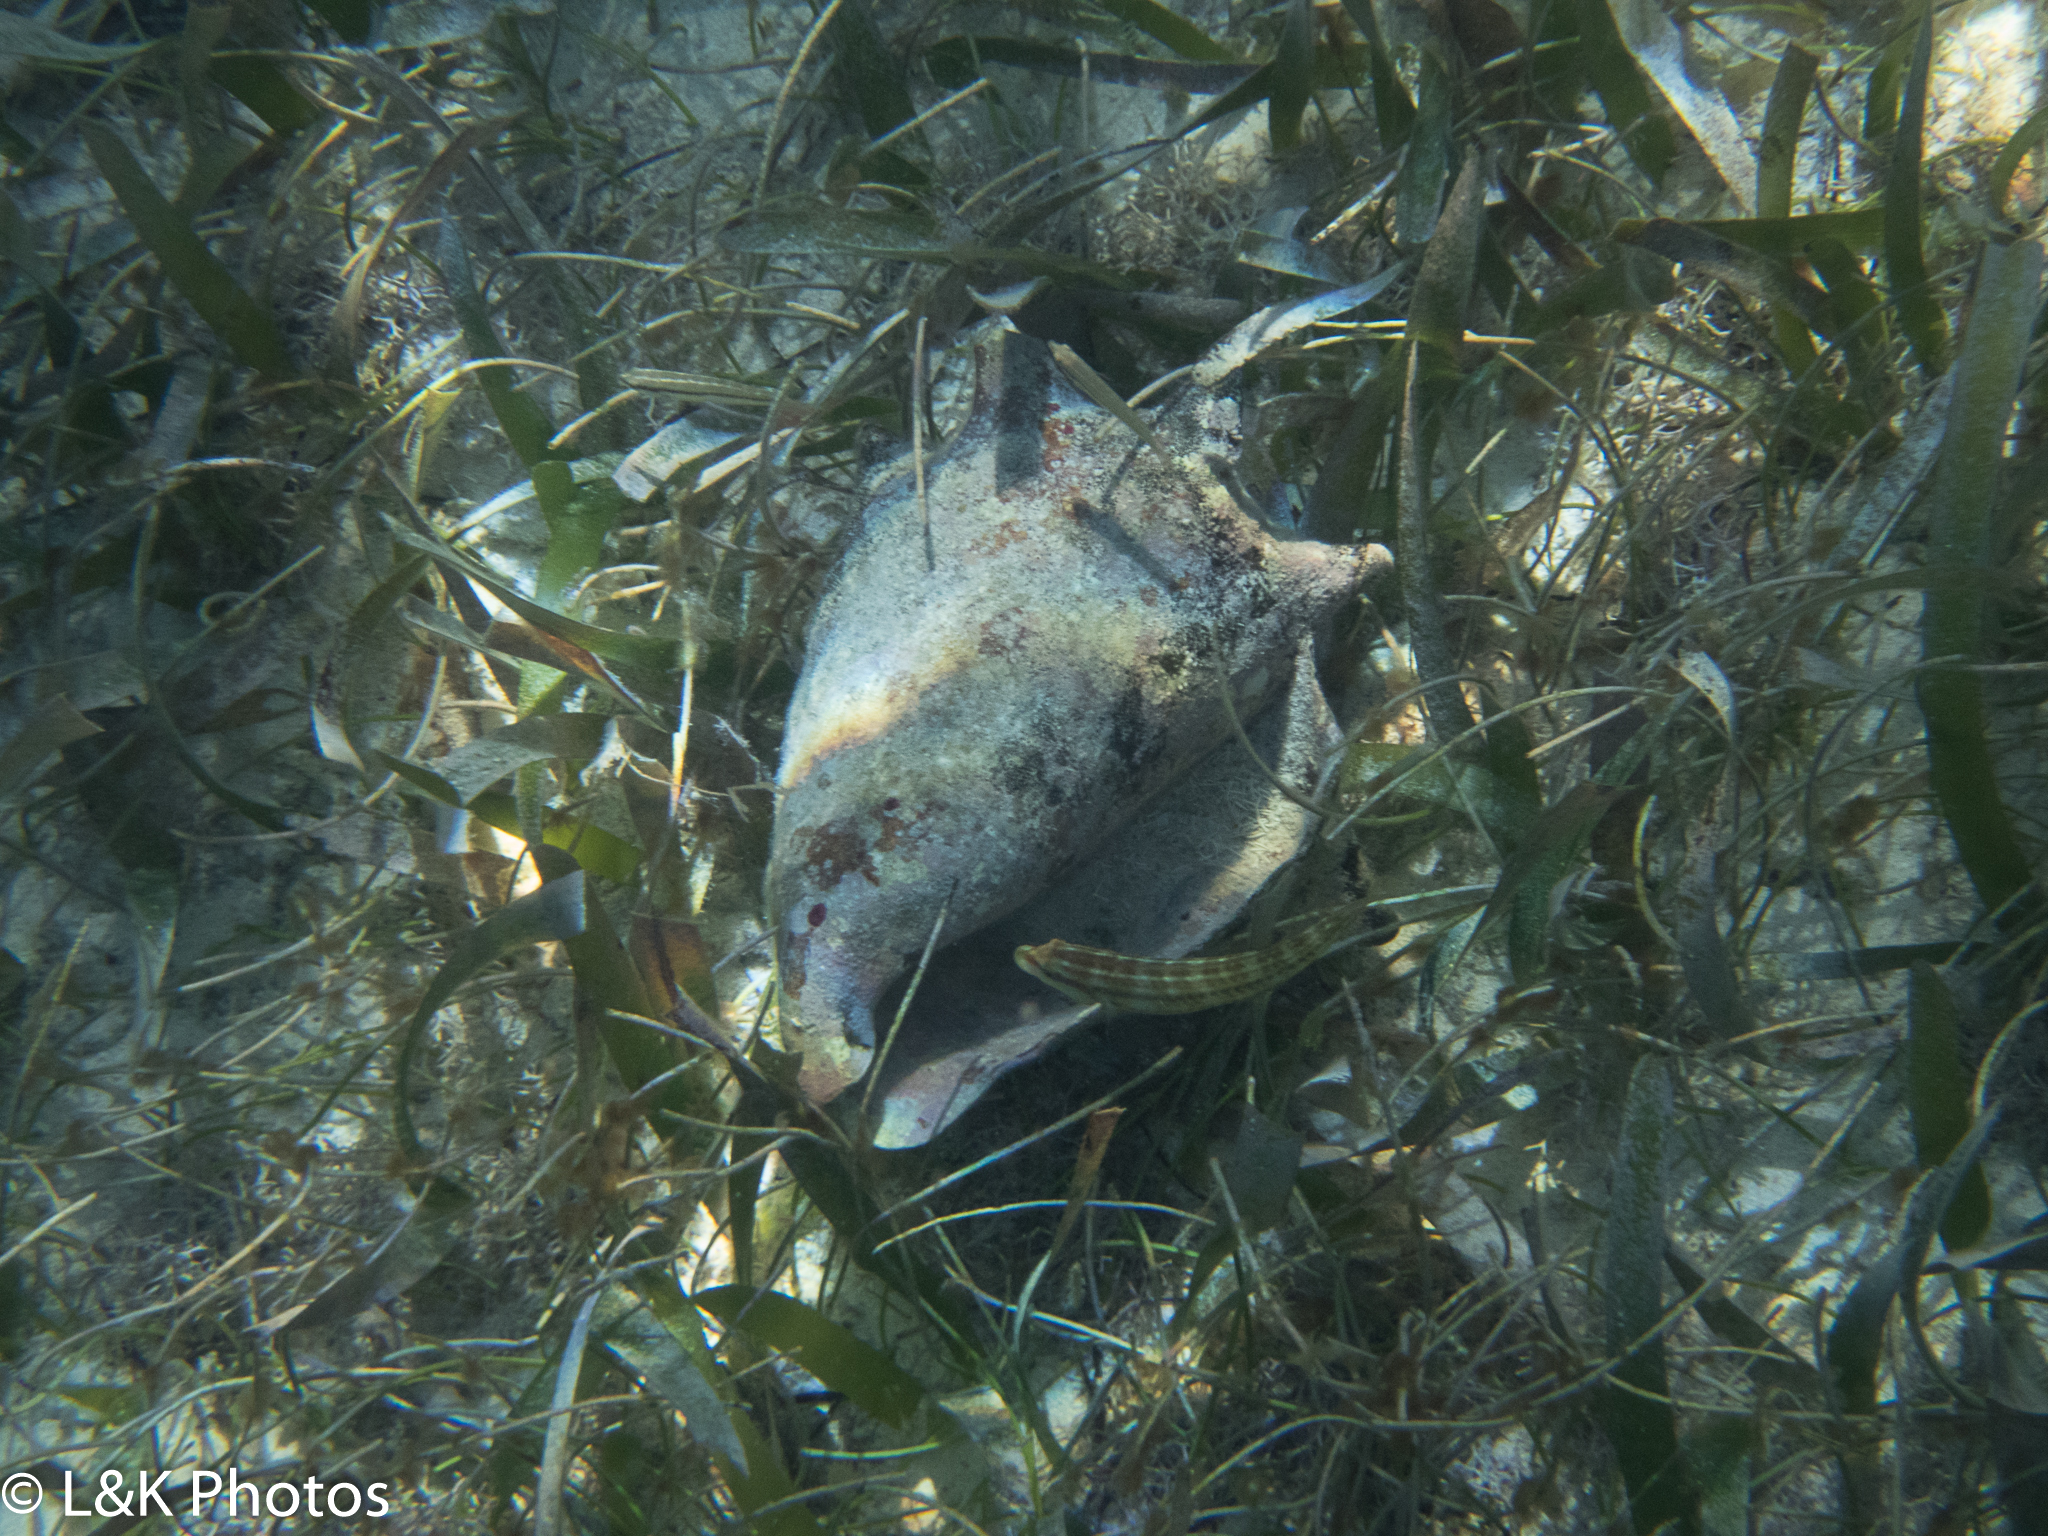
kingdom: Animalia
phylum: Mollusca
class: Gastropoda
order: Littorinimorpha
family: Strombidae
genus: Aliger
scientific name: Aliger gigas
